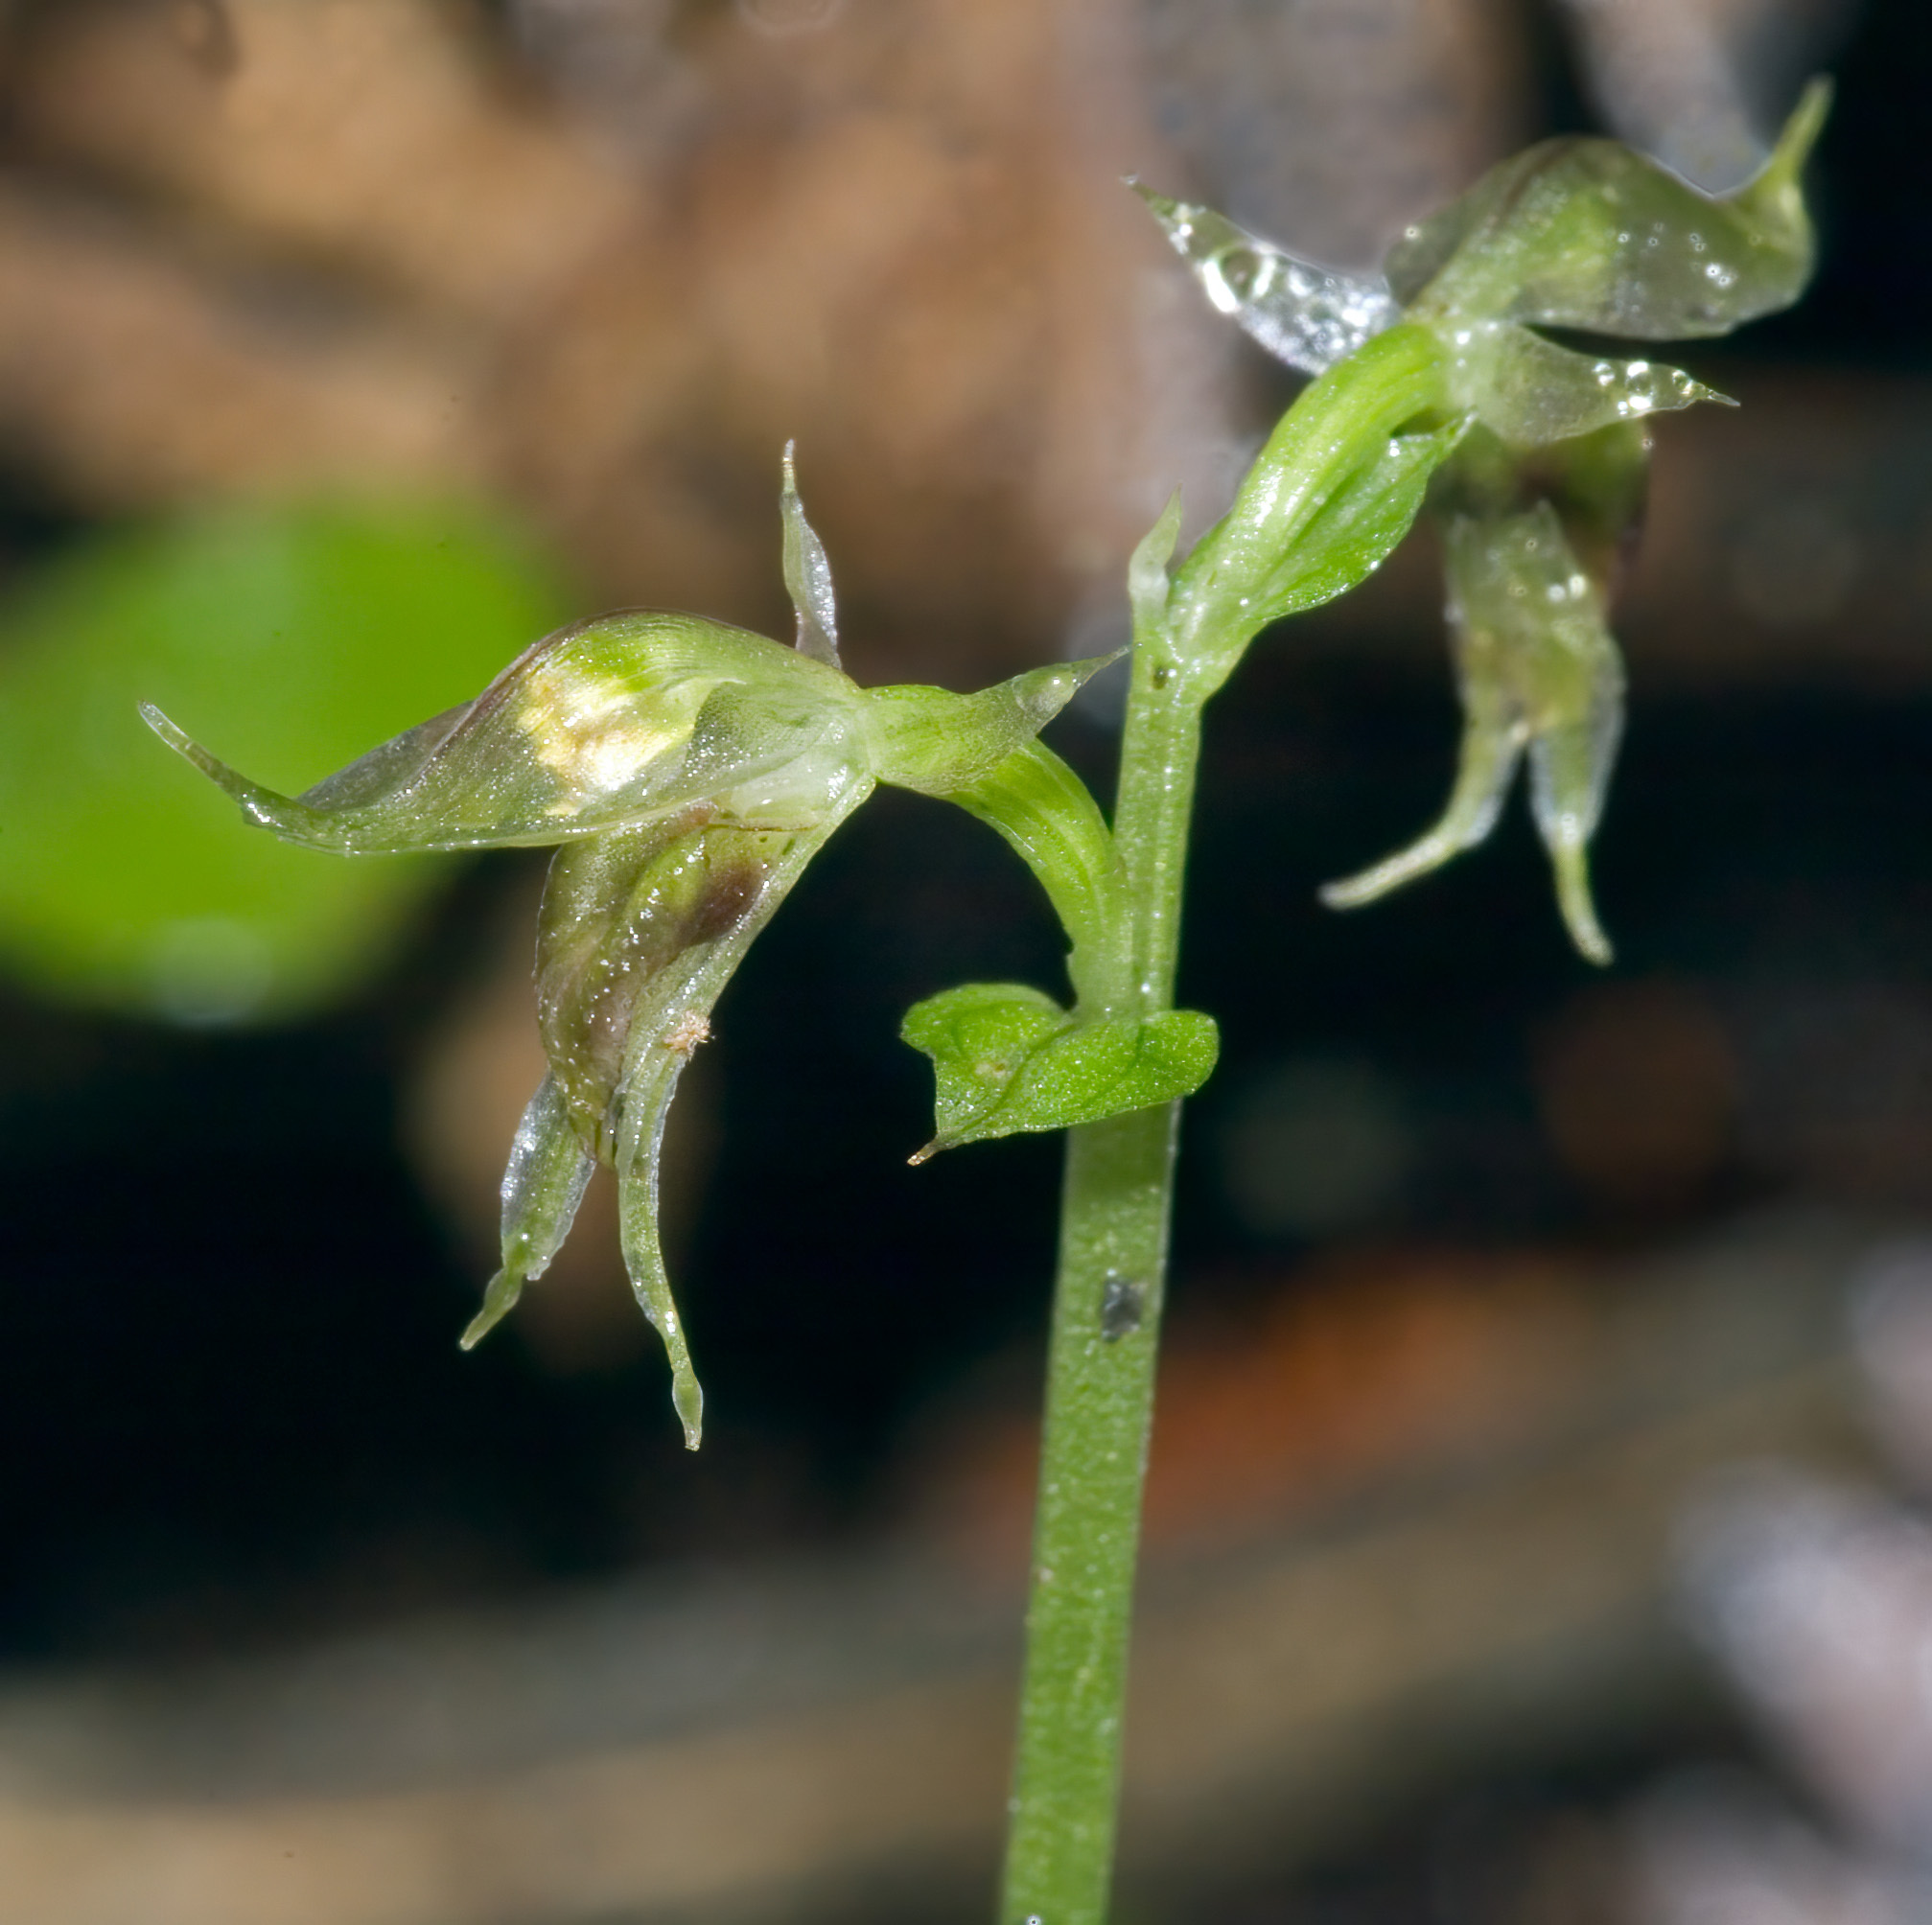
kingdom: Plantae
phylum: Tracheophyta
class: Liliopsida
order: Asparagales
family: Orchidaceae
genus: Acianthus
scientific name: Acianthus sinclairii
